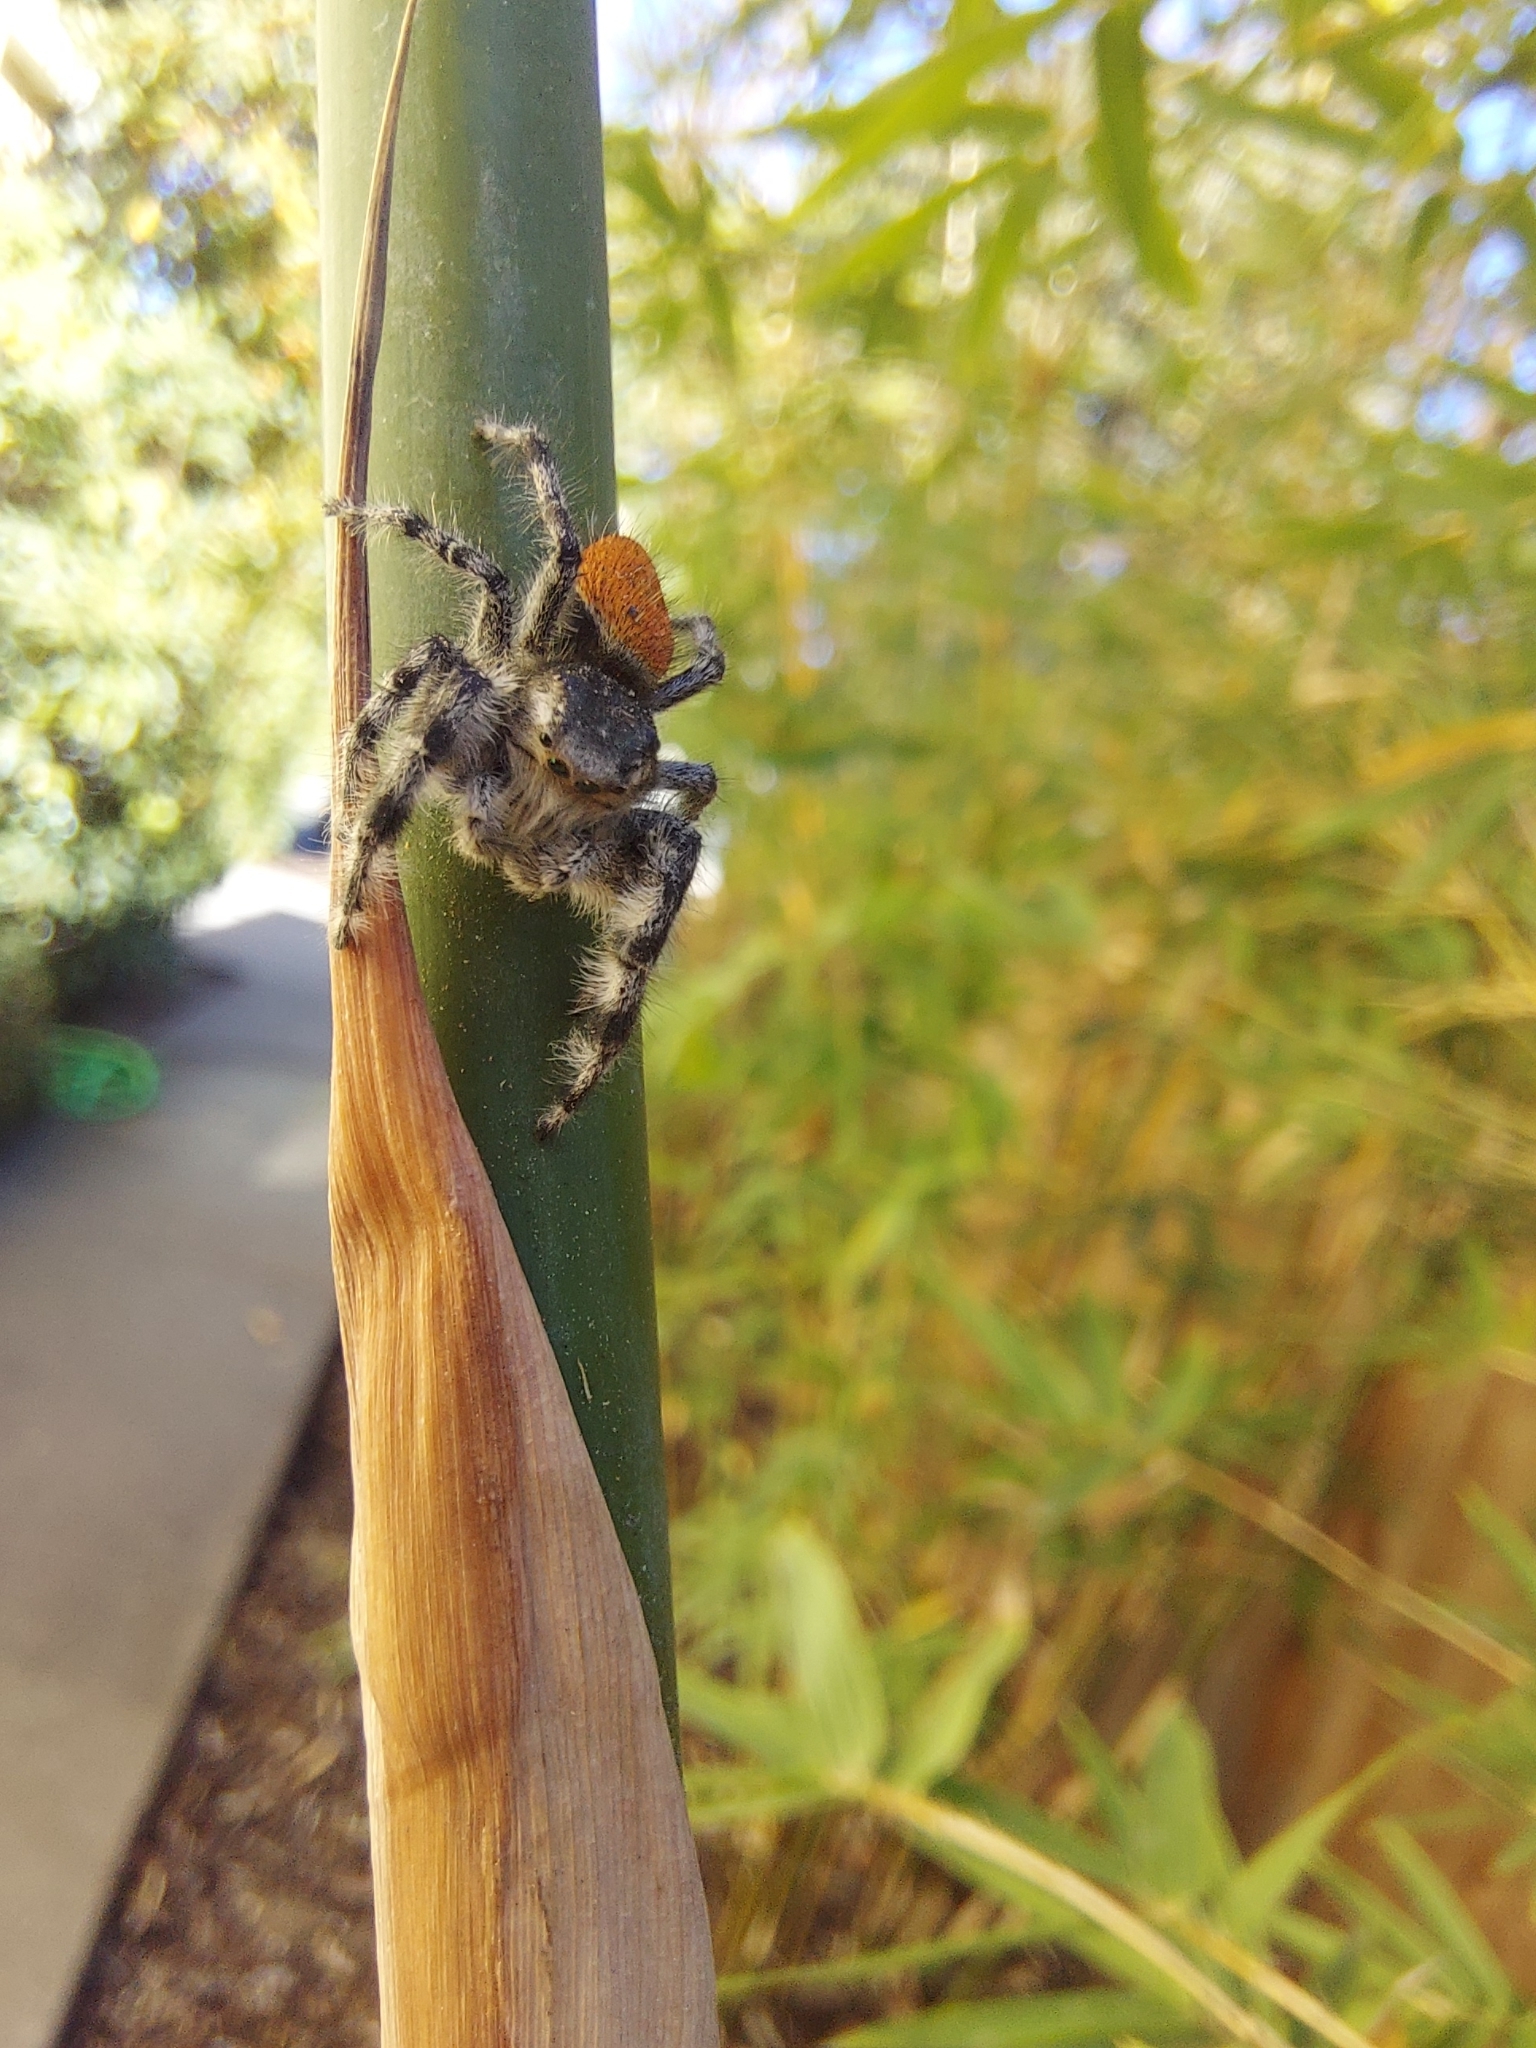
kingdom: Animalia
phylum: Arthropoda
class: Arachnida
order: Araneae
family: Salticidae
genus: Phidippus
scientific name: Phidippus adumbratus
